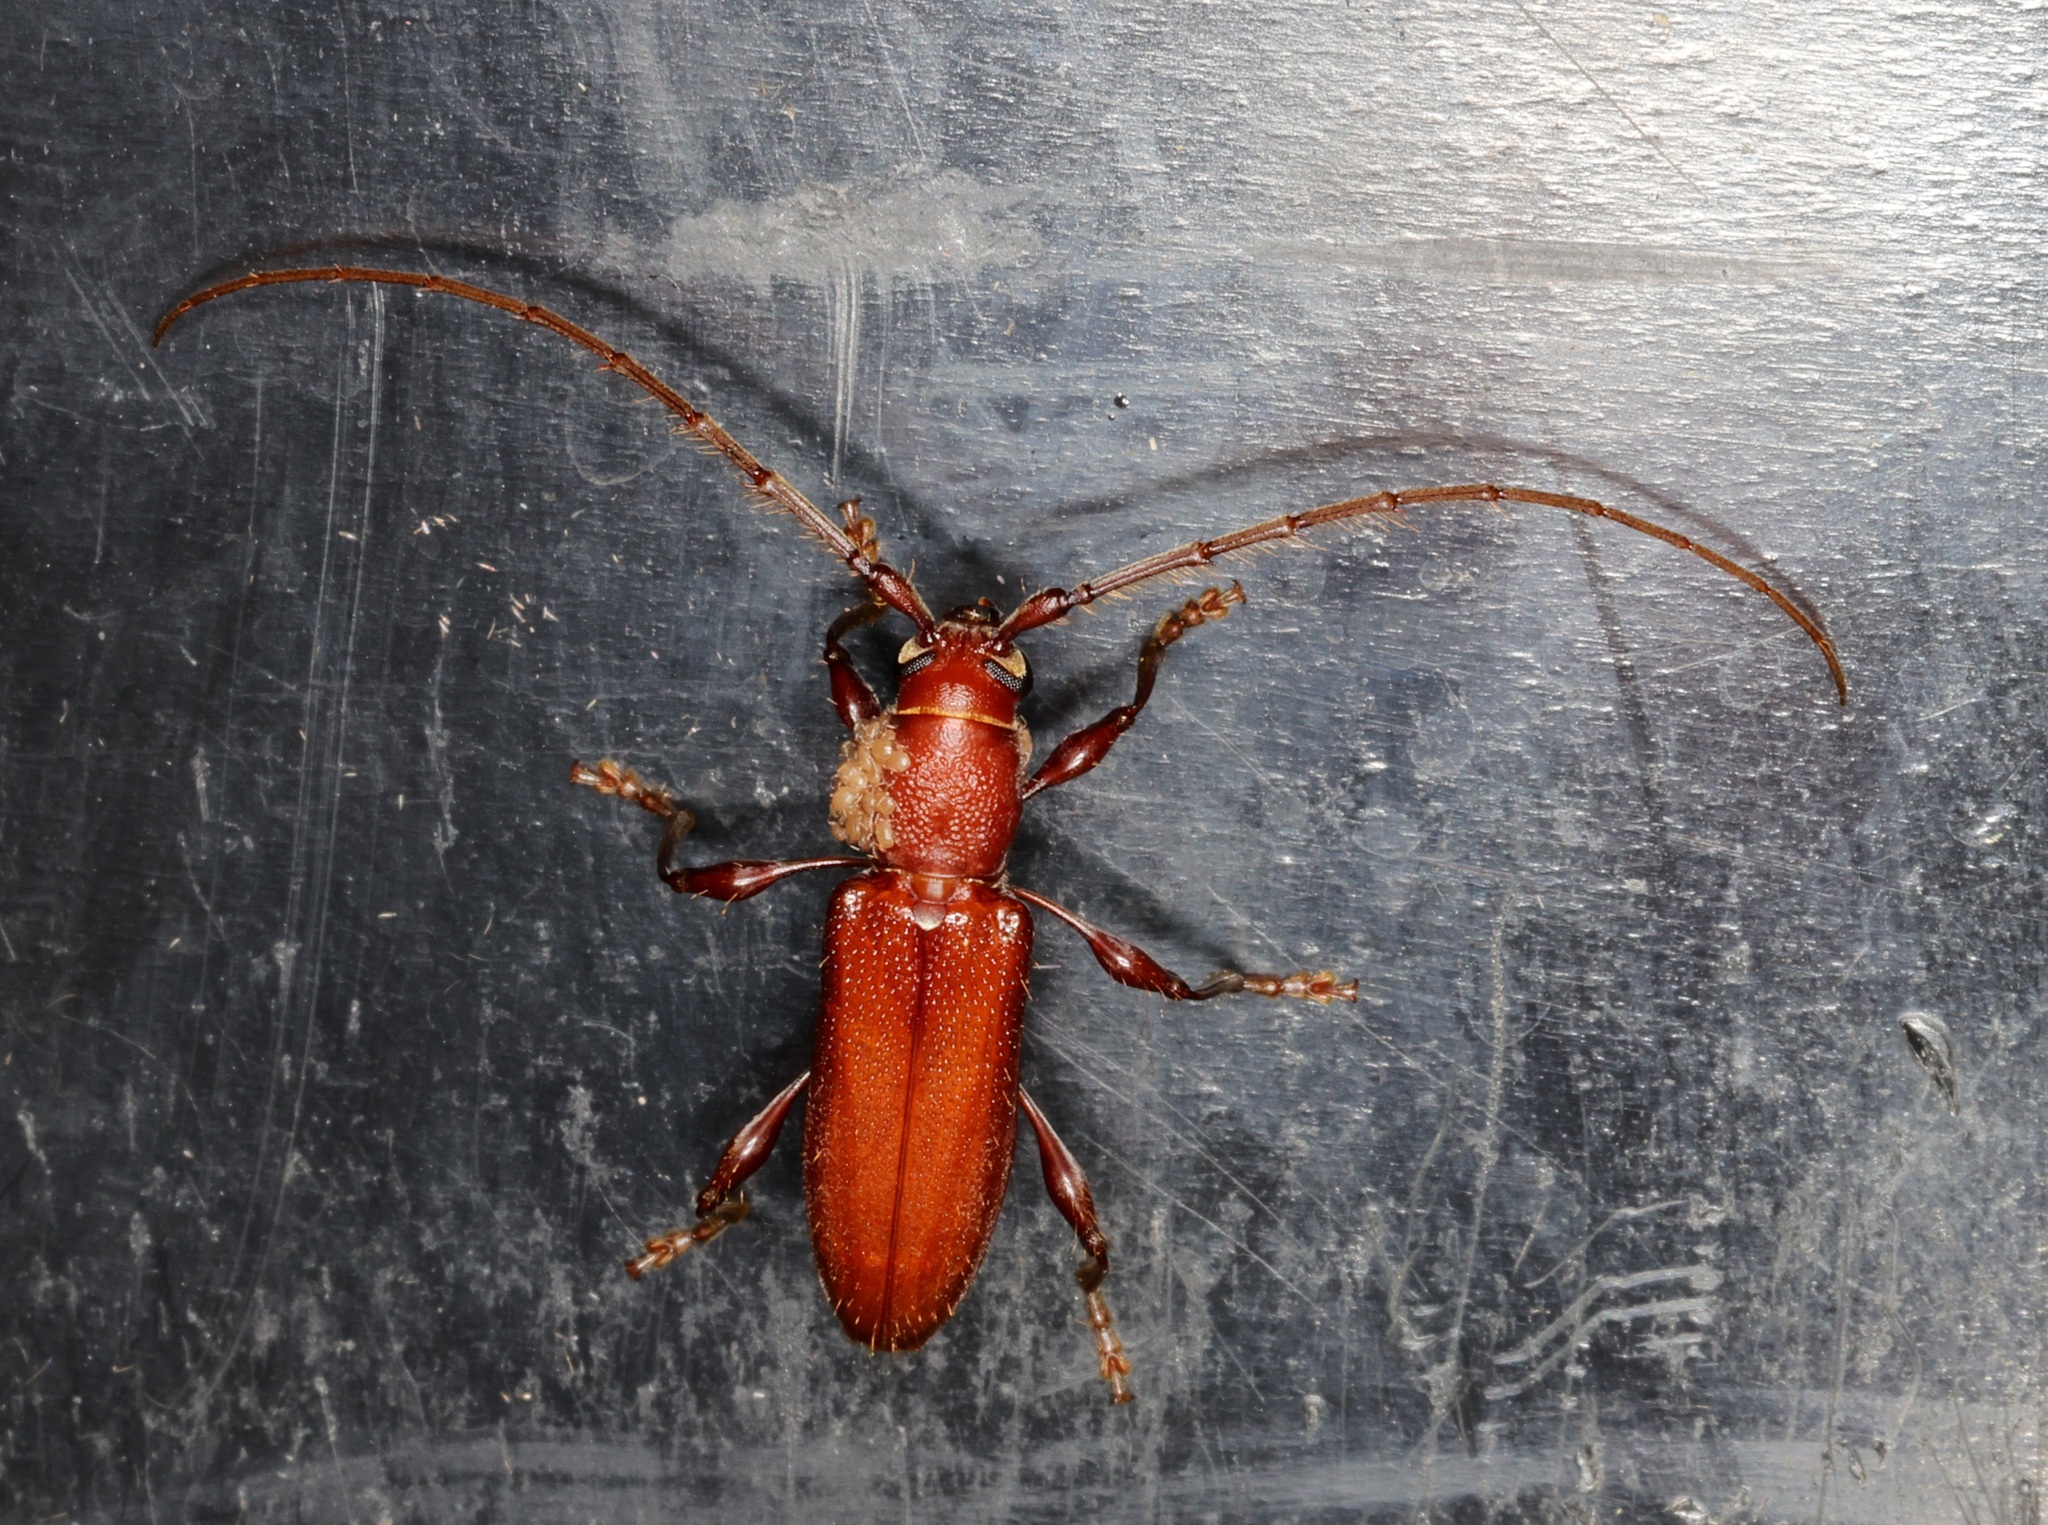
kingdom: Animalia
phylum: Arthropoda
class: Insecta
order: Coleoptera
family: Cerambycidae
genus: Nysina
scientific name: Nysina rufescens
